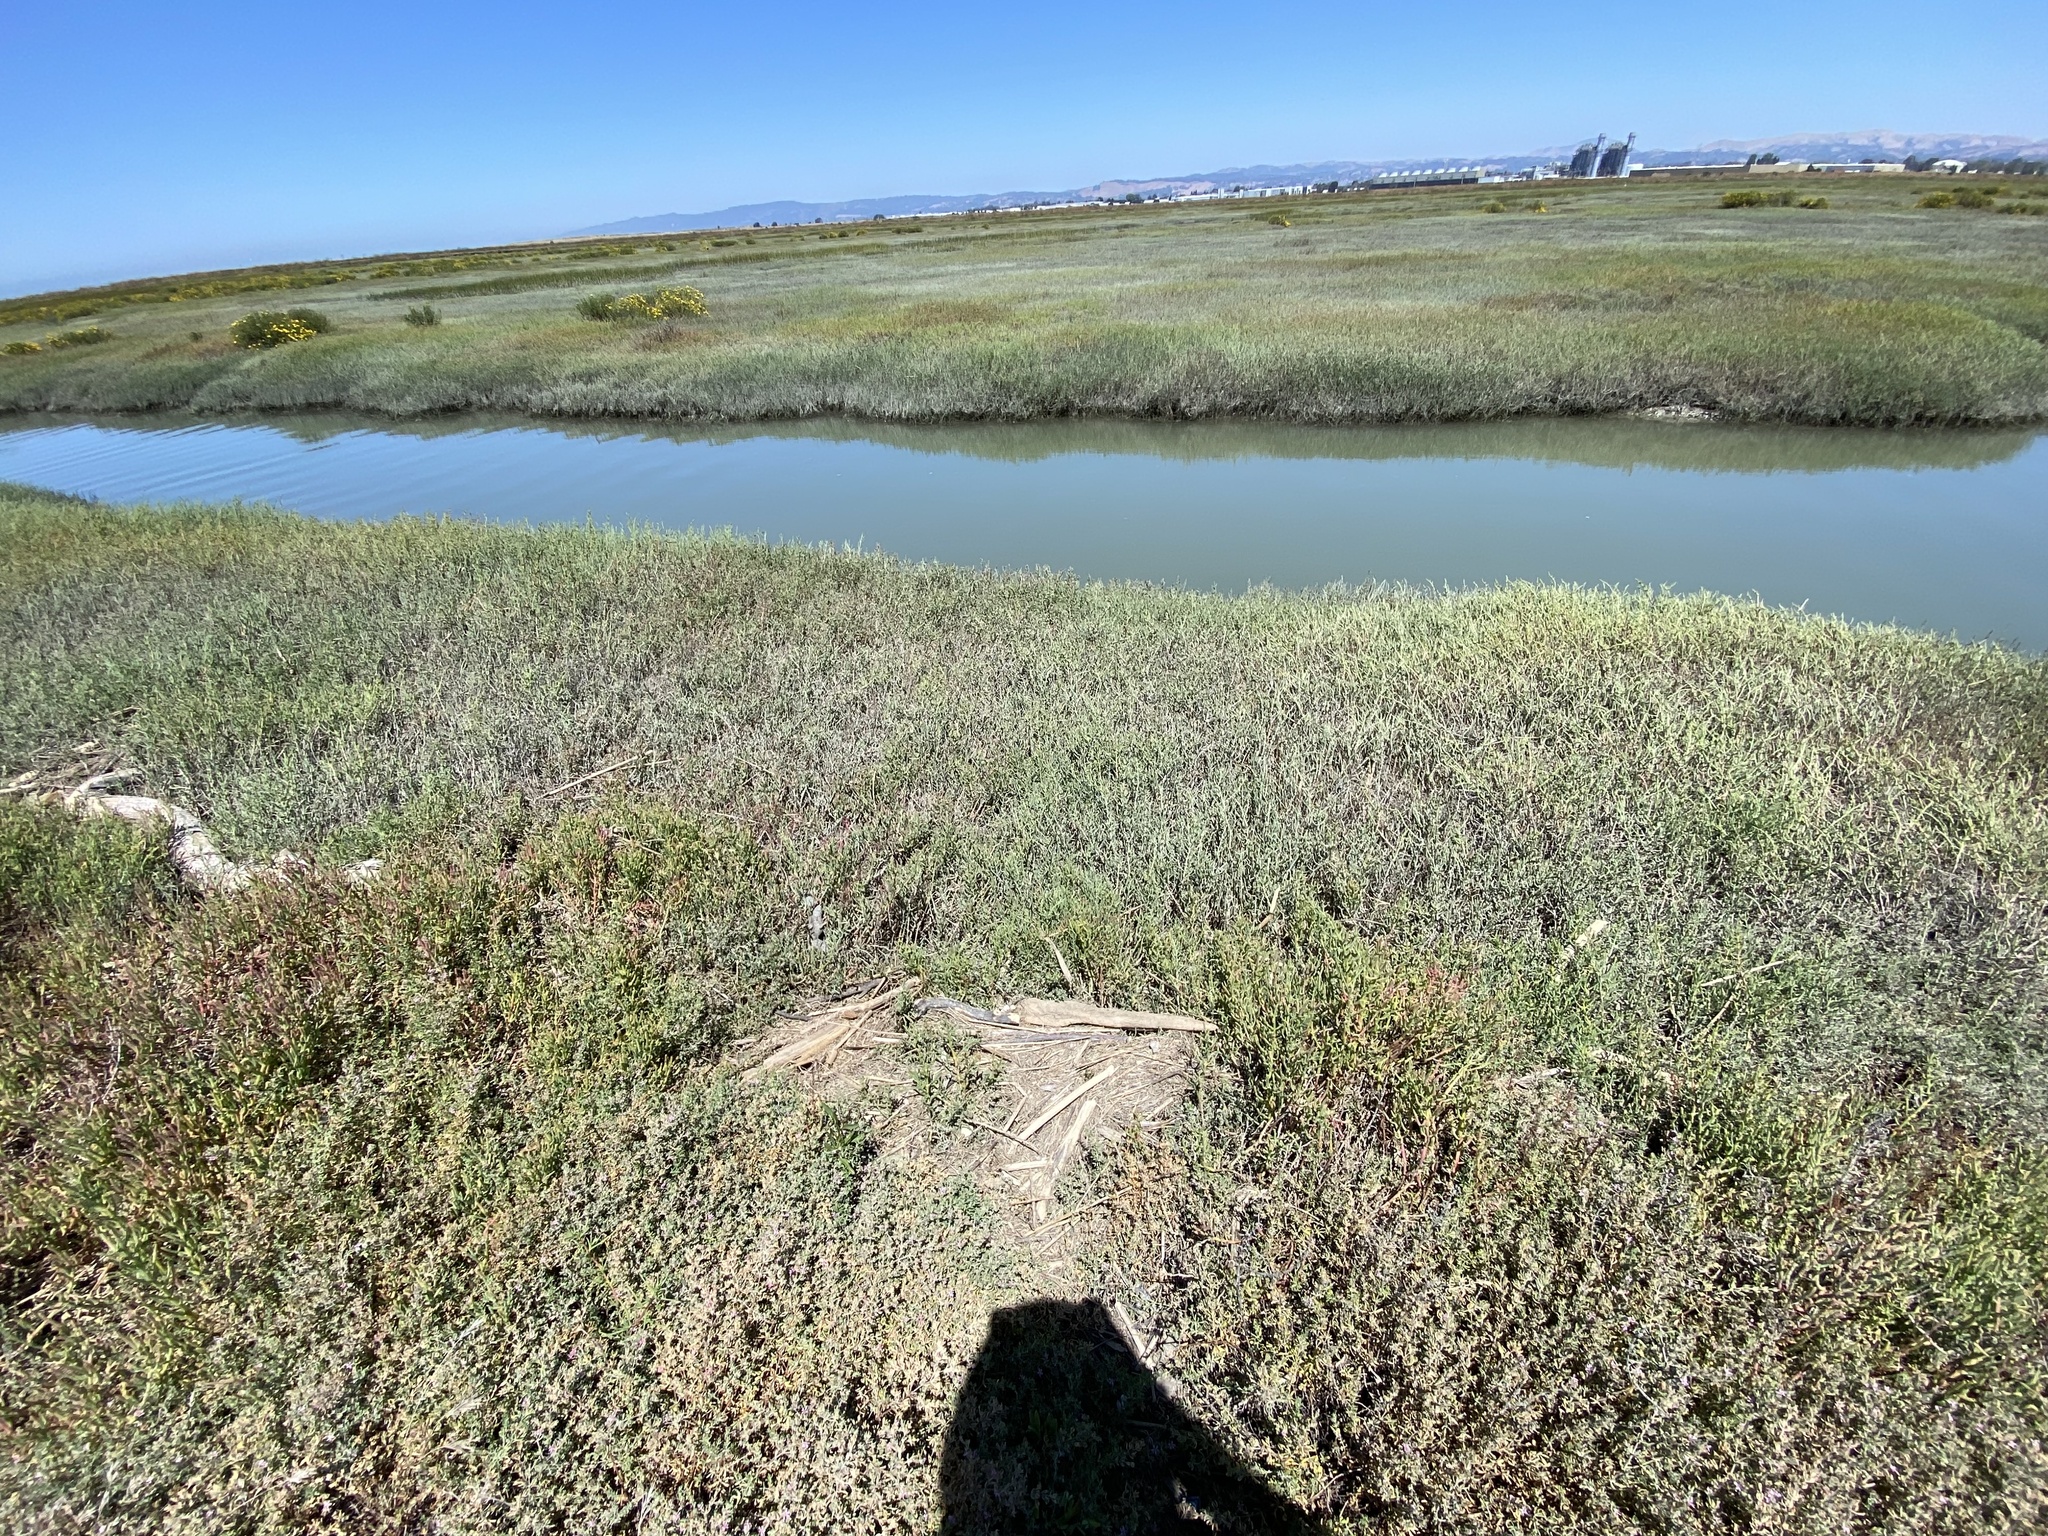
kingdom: Animalia
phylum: Arthropoda
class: Malacostraca
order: Decapoda
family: Varunidae
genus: Hemigrapsus
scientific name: Hemigrapsus oregonensis
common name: Yellow shore crab
